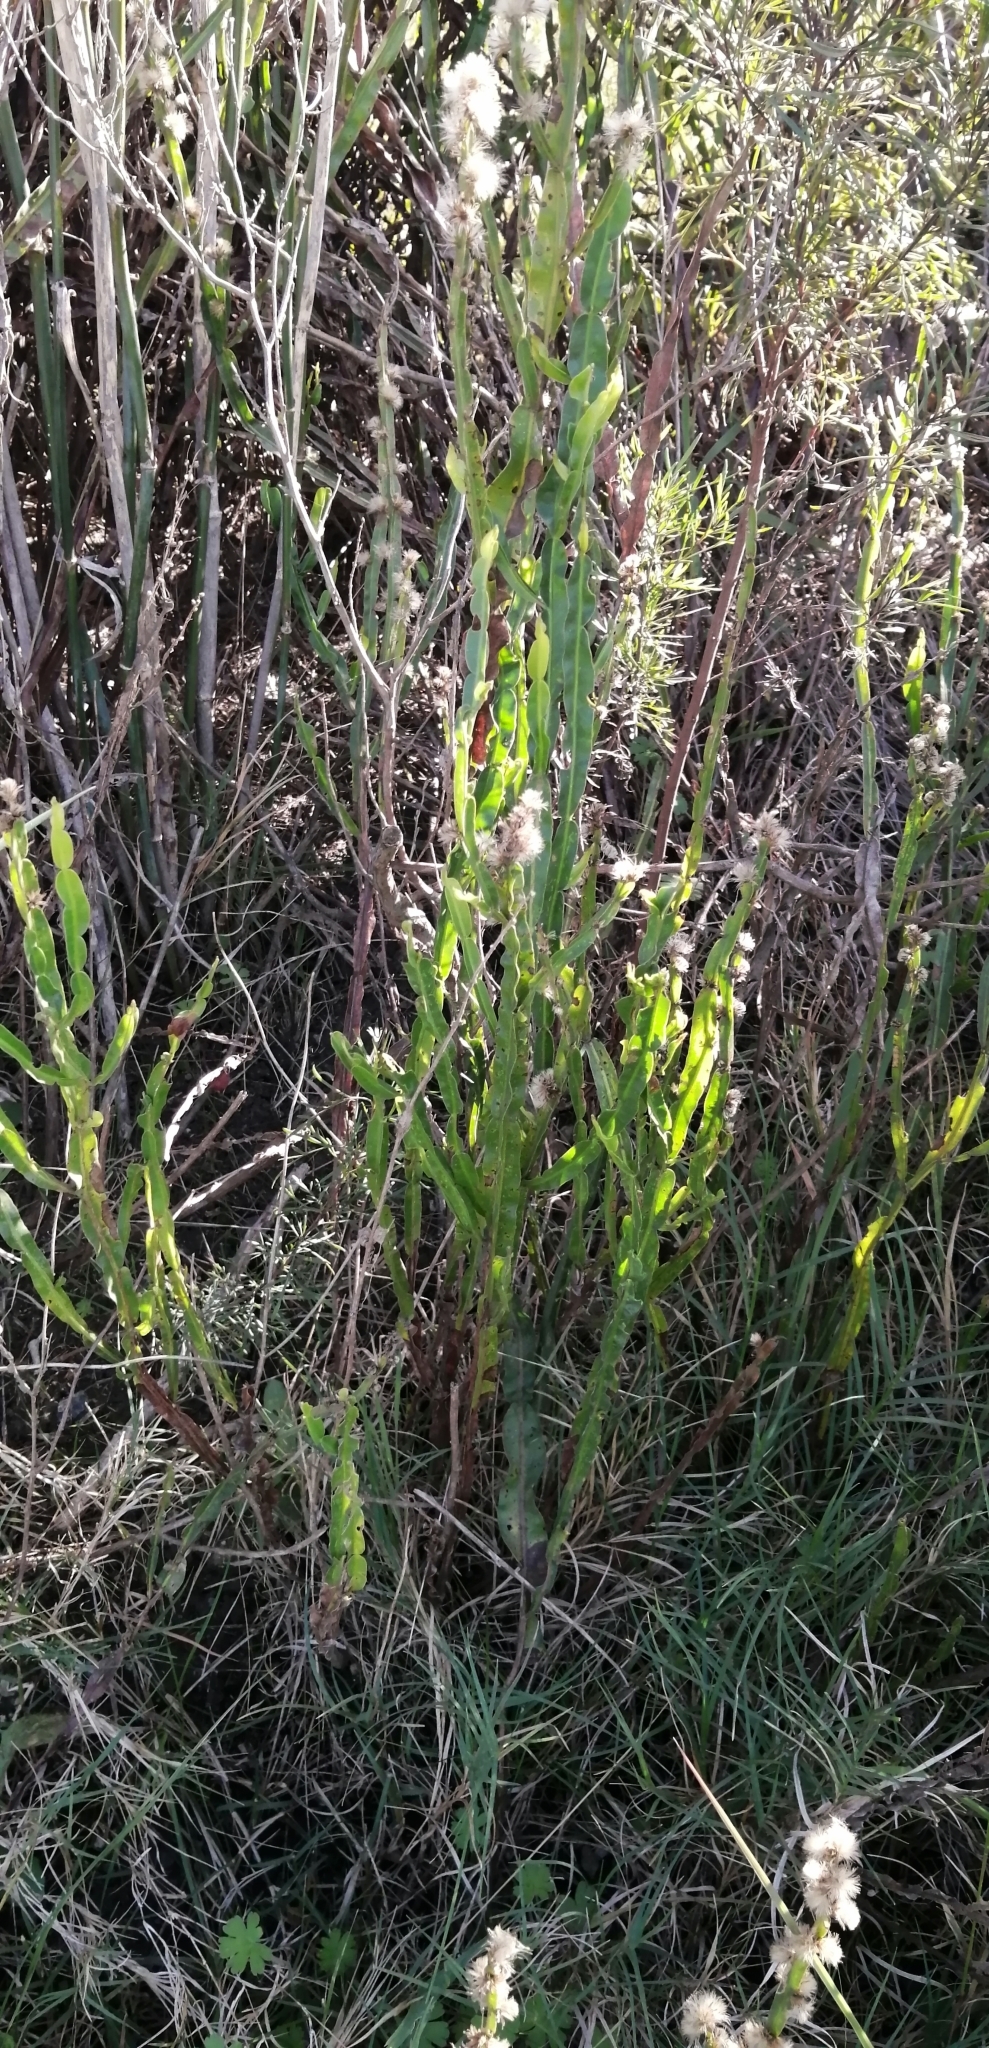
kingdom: Plantae
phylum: Tracheophyta
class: Magnoliopsida
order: Asterales
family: Asteraceae
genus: Baccharis
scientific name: Baccharis trimera
